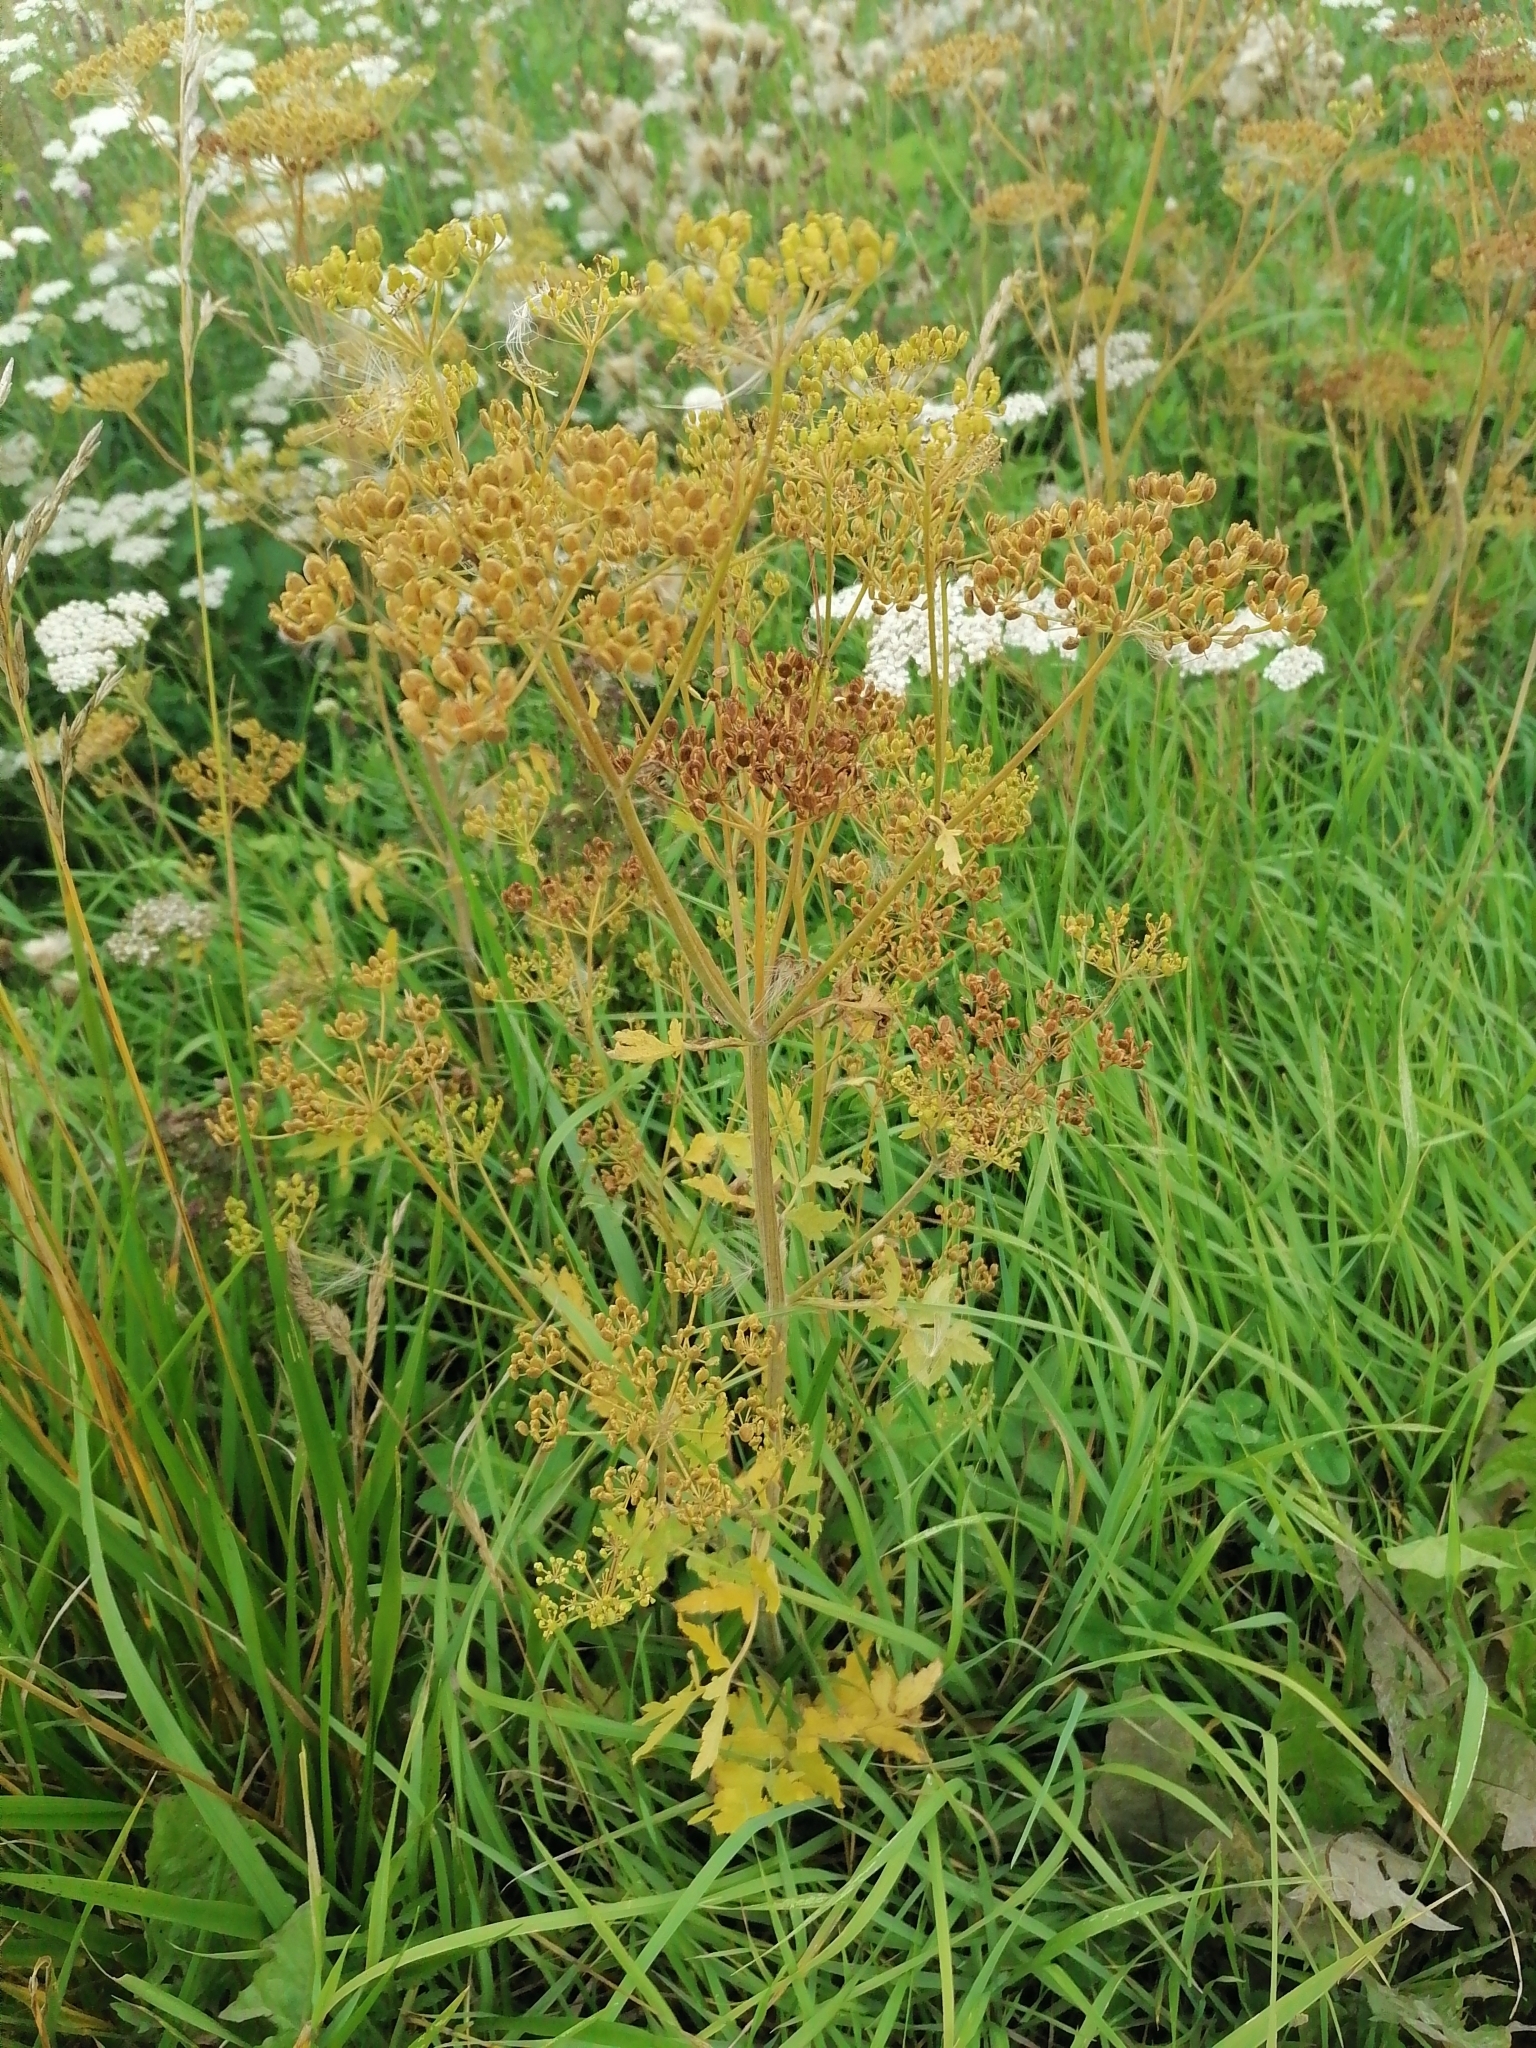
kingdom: Plantae
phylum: Tracheophyta
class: Magnoliopsida
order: Apiales
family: Apiaceae
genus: Pastinaca
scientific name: Pastinaca sativa
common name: Wild parsnip
